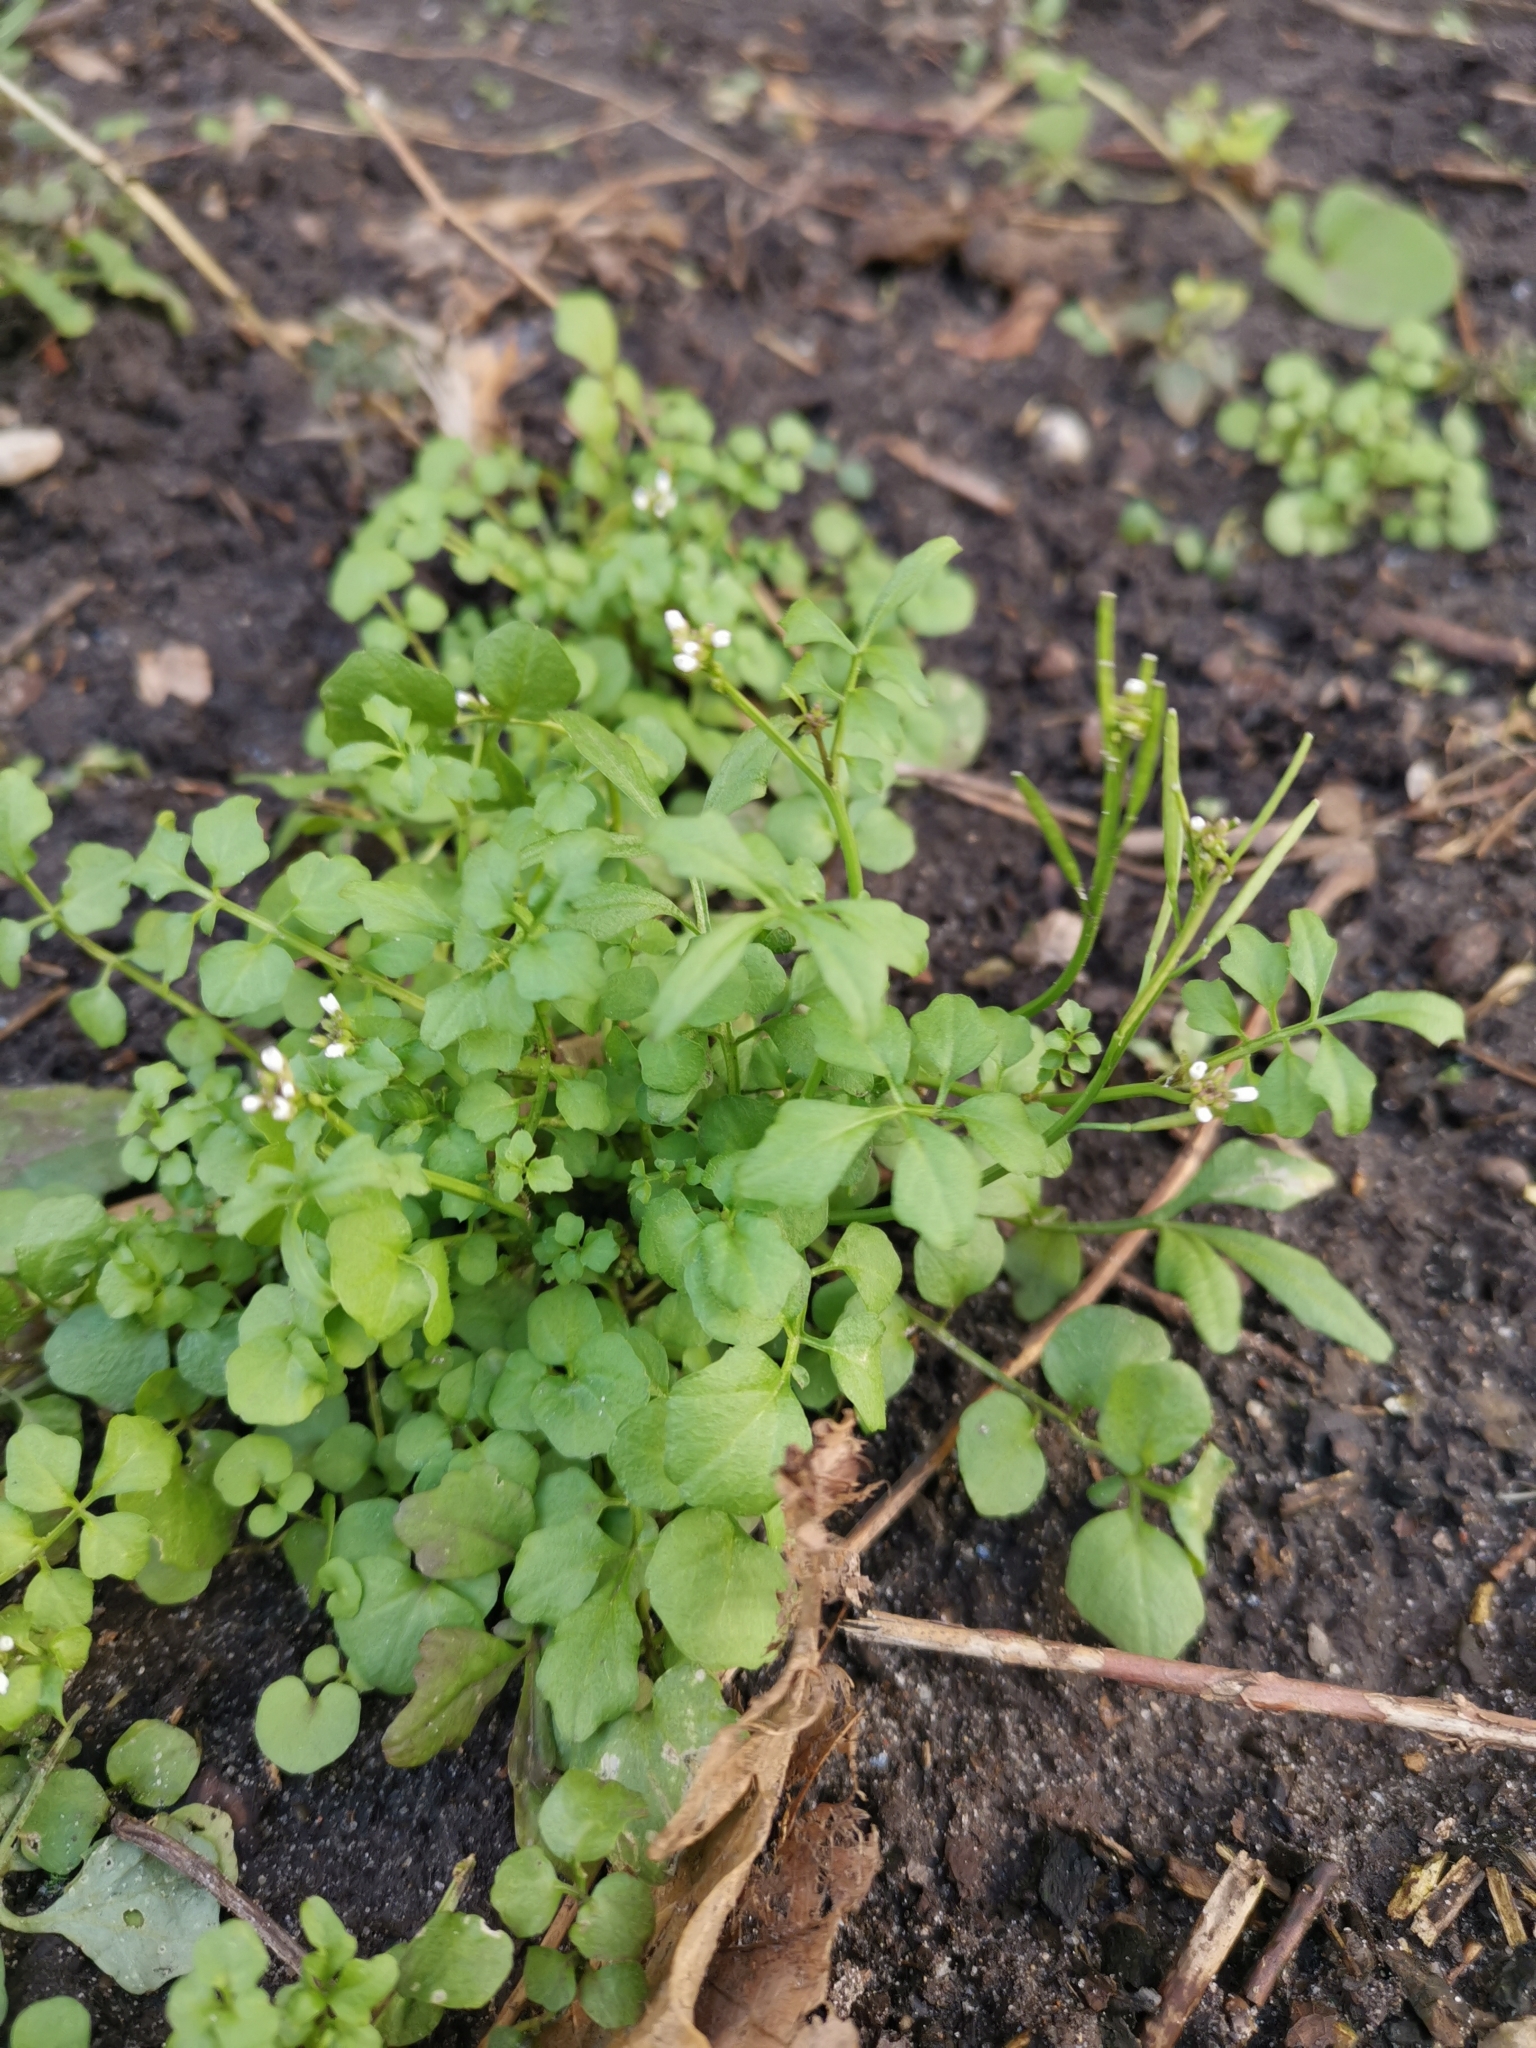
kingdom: Plantae
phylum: Tracheophyta
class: Magnoliopsida
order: Brassicales
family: Brassicaceae
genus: Cardamine
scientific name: Cardamine hirsuta
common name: Hairy bittercress
